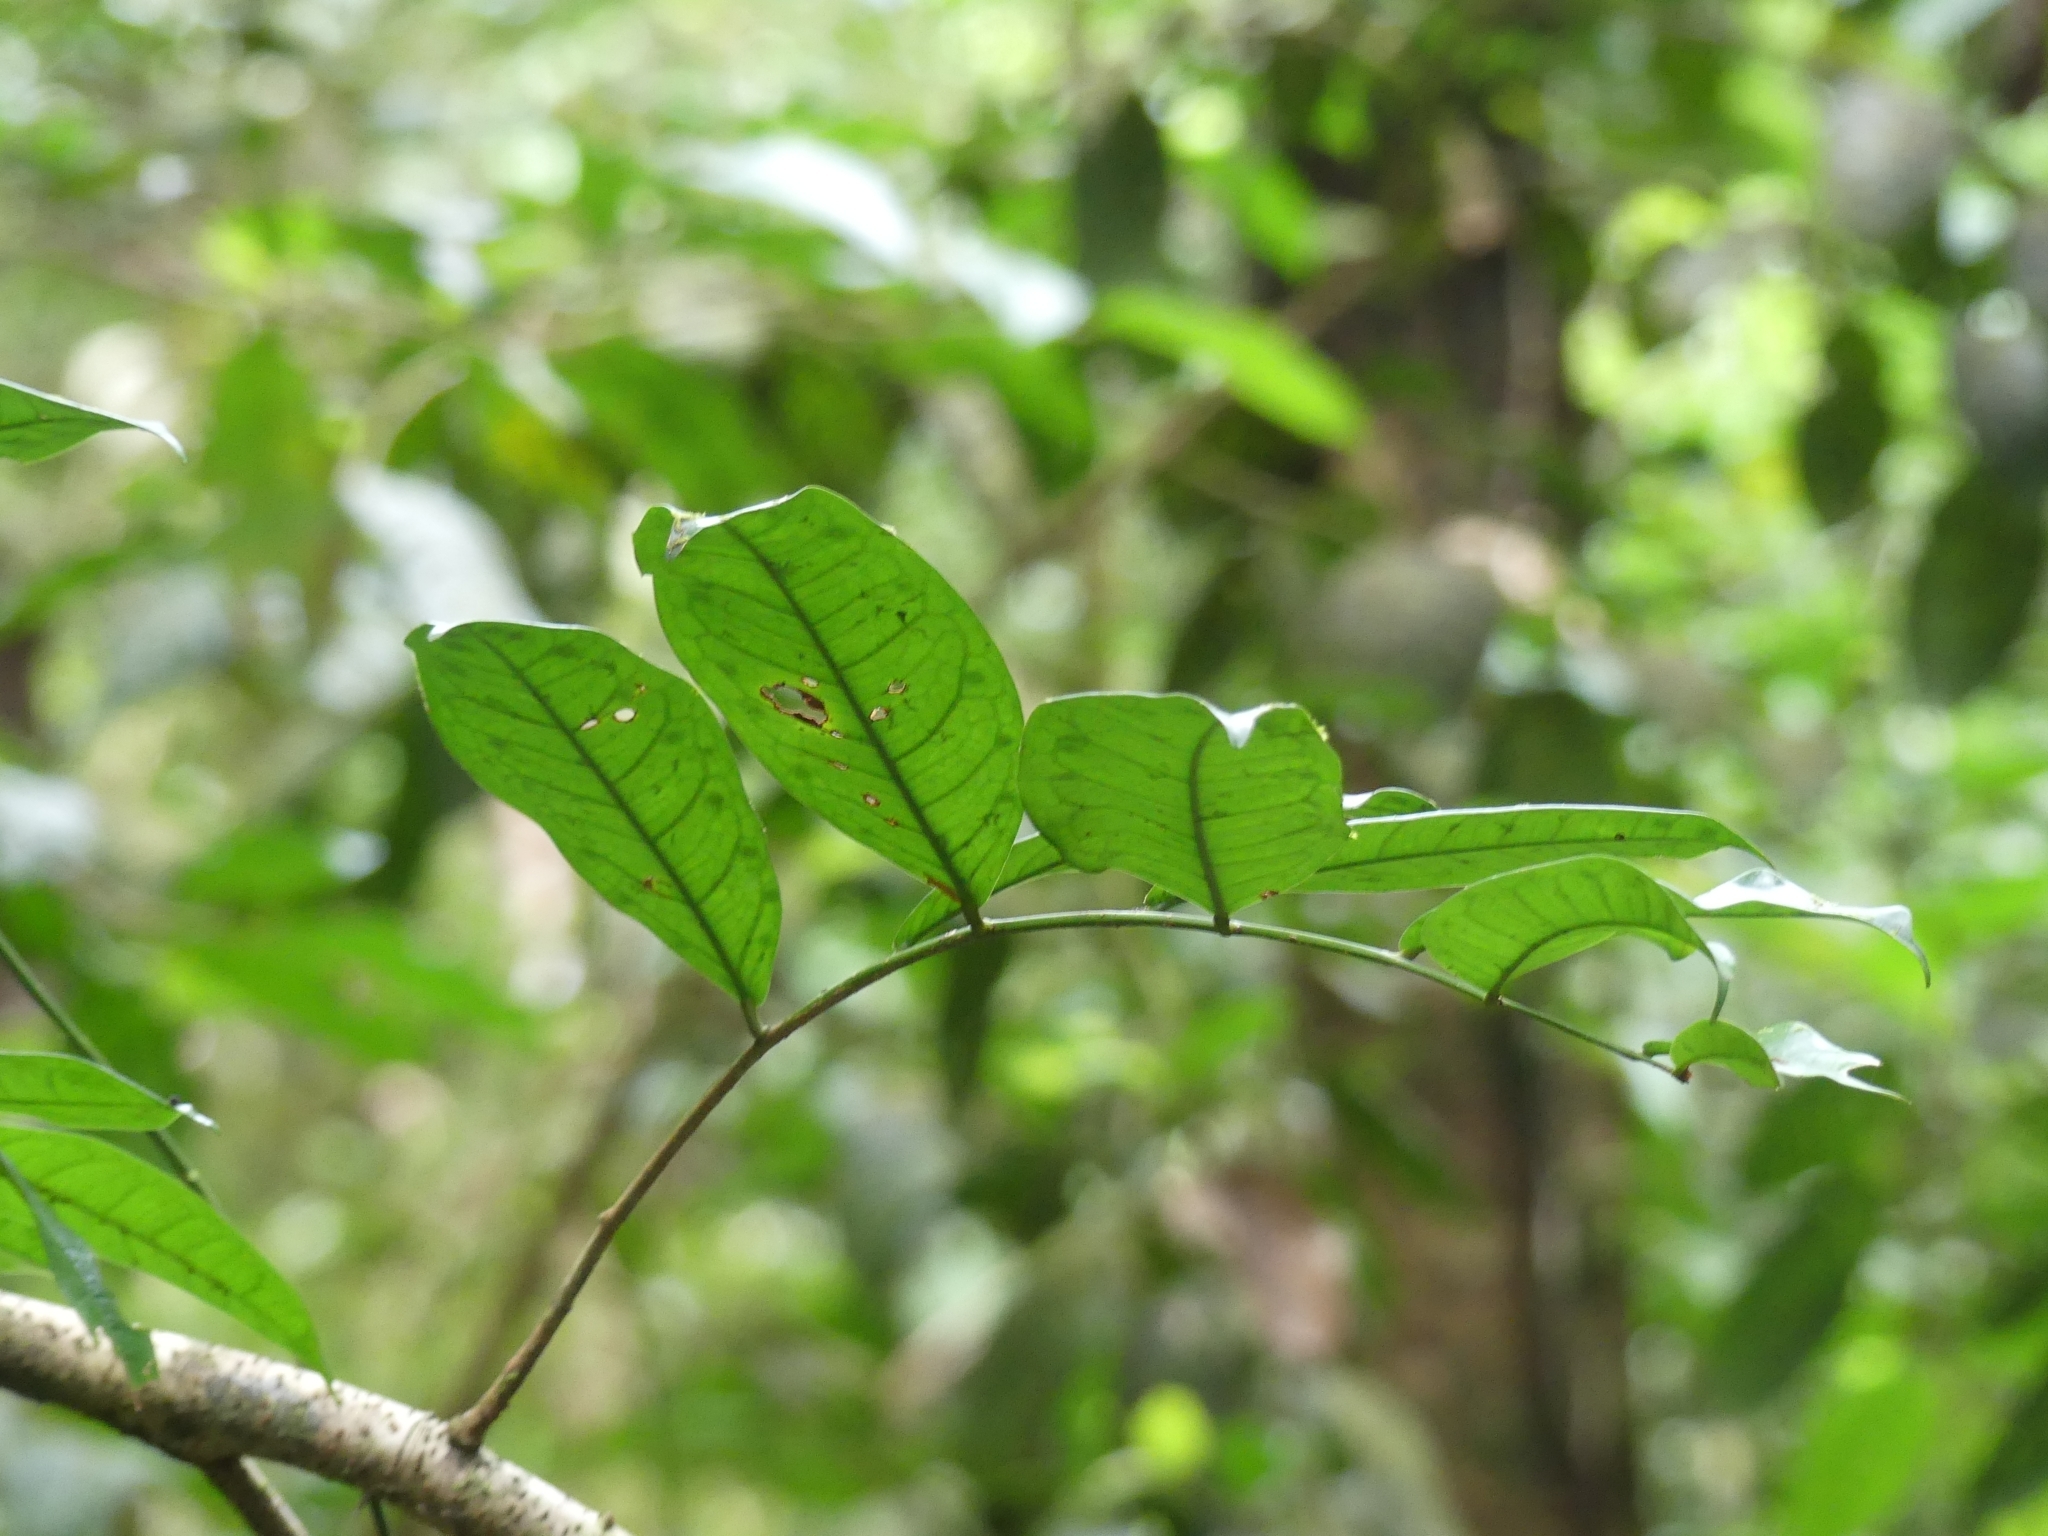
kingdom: Plantae
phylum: Tracheophyta
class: Magnoliopsida
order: Fabales
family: Fabaceae
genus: Paloue
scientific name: Paloue guianensis
